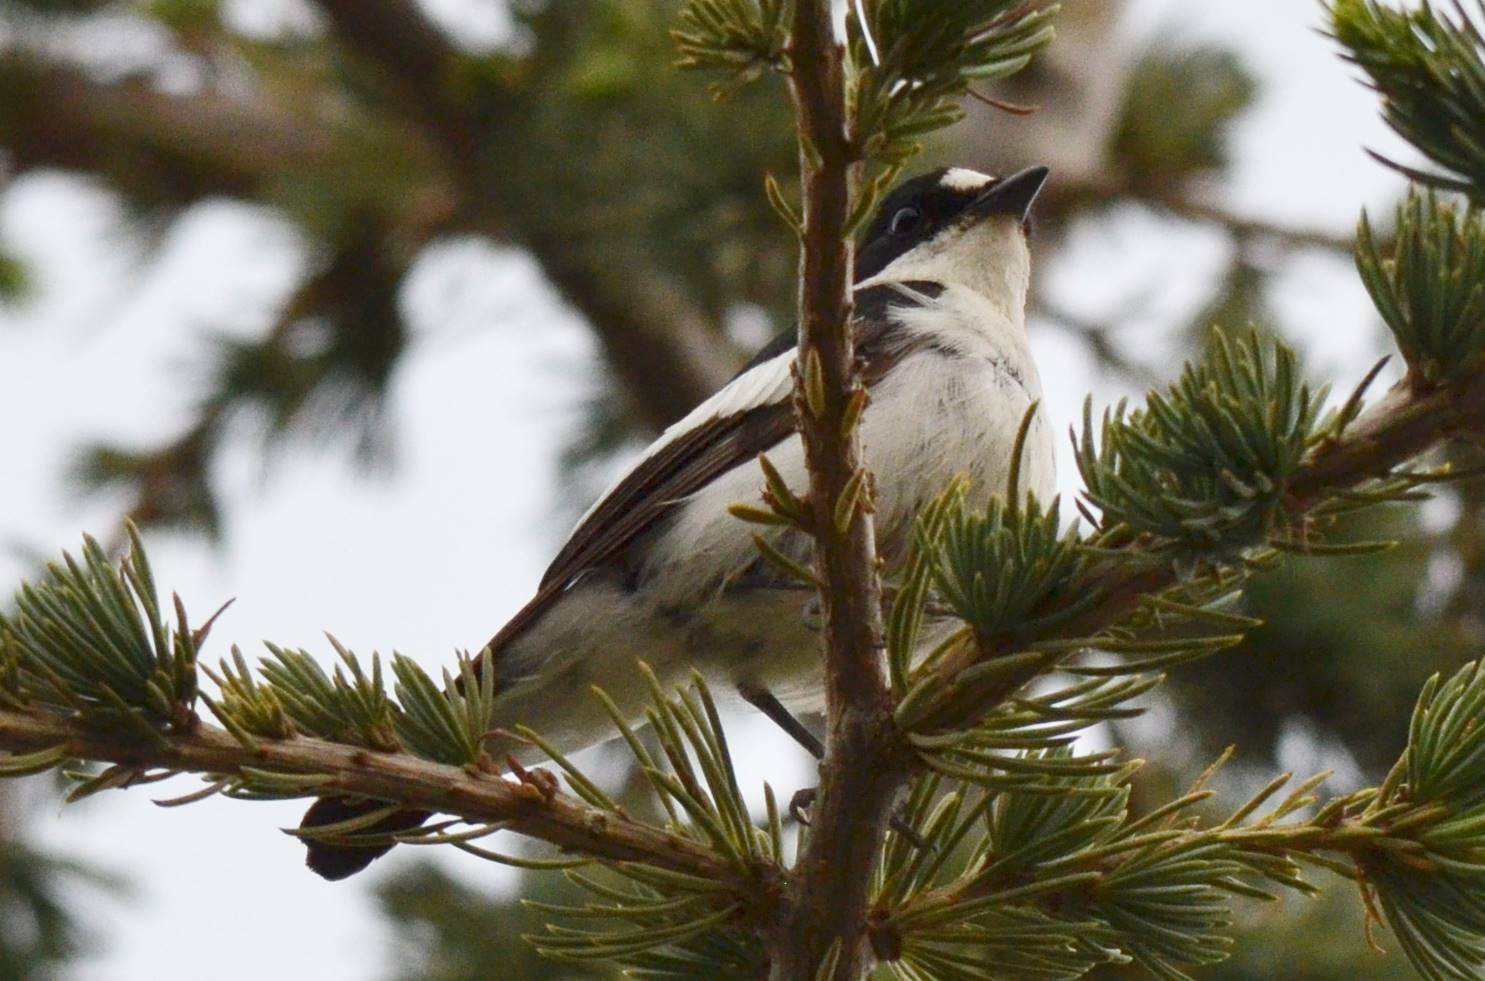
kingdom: Animalia
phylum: Chordata
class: Aves
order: Passeriformes
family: Muscicapidae
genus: Ficedula
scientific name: Ficedula speculigera
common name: Atlas pied flycatcher
